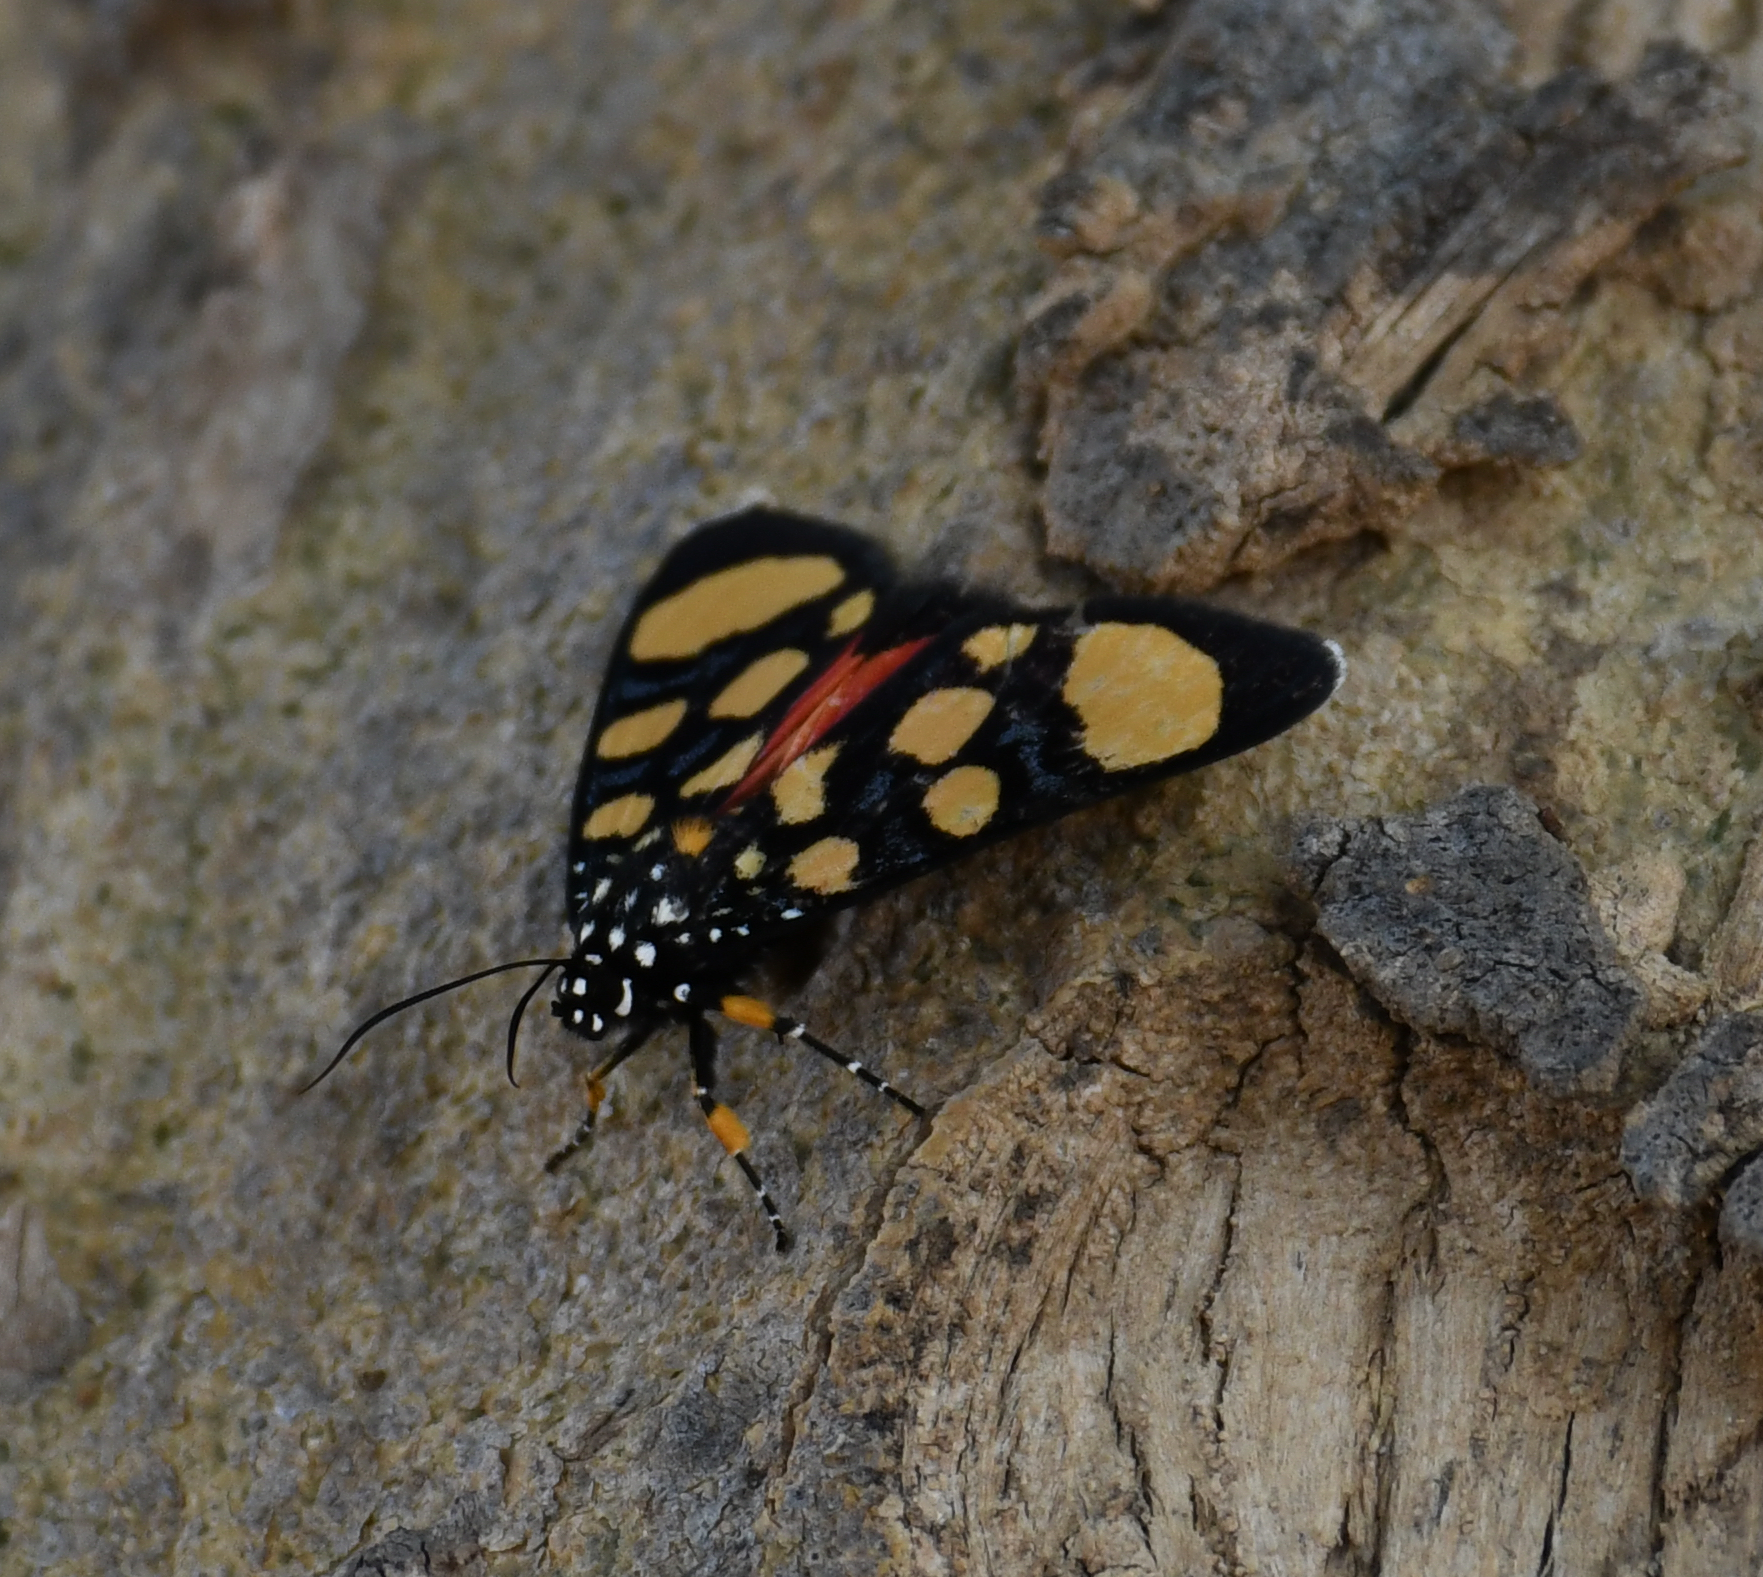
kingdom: Animalia
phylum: Arthropoda
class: Insecta
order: Lepidoptera
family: Noctuidae
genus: Heraclia
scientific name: Heraclia superba
